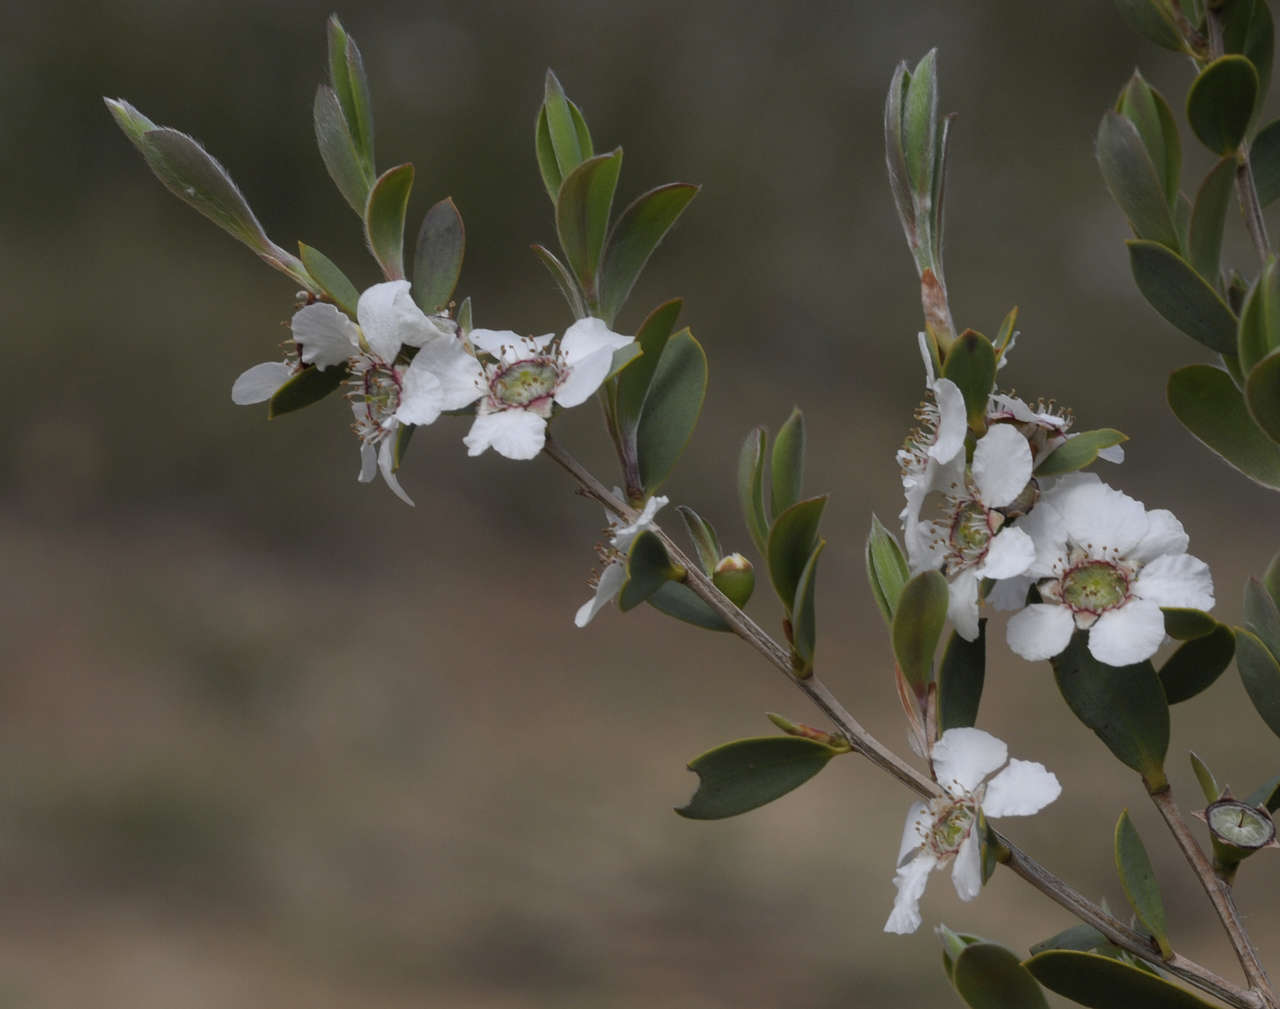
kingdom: Plantae
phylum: Tracheophyta
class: Magnoliopsida
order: Myrtales
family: Myrtaceae
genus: Leptospermum
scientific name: Leptospermum laevigatum
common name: Australian teatree
